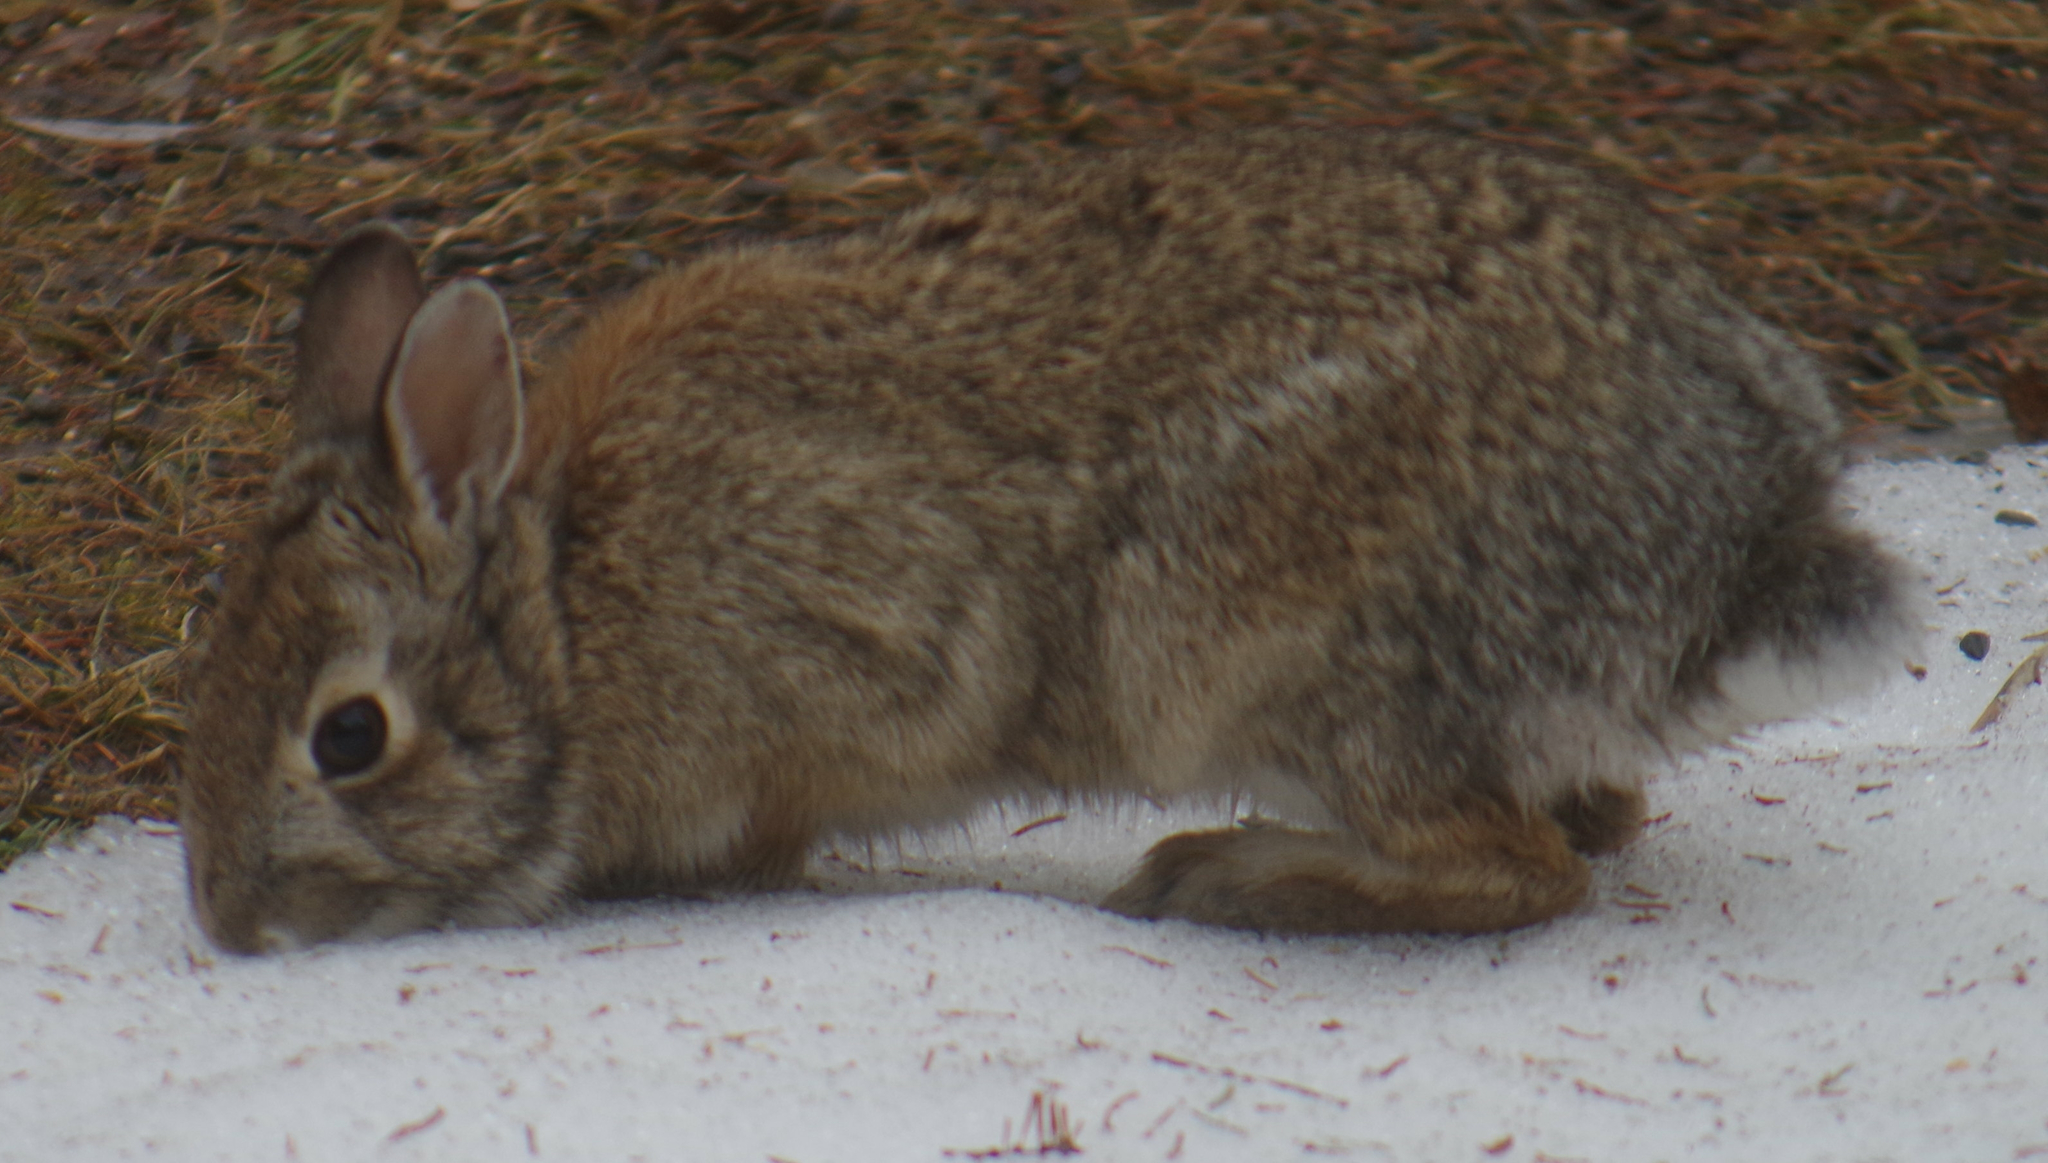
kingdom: Animalia
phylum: Chordata
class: Mammalia
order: Lagomorpha
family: Leporidae
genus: Sylvilagus
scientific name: Sylvilagus floridanus
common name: Eastern cottontail
